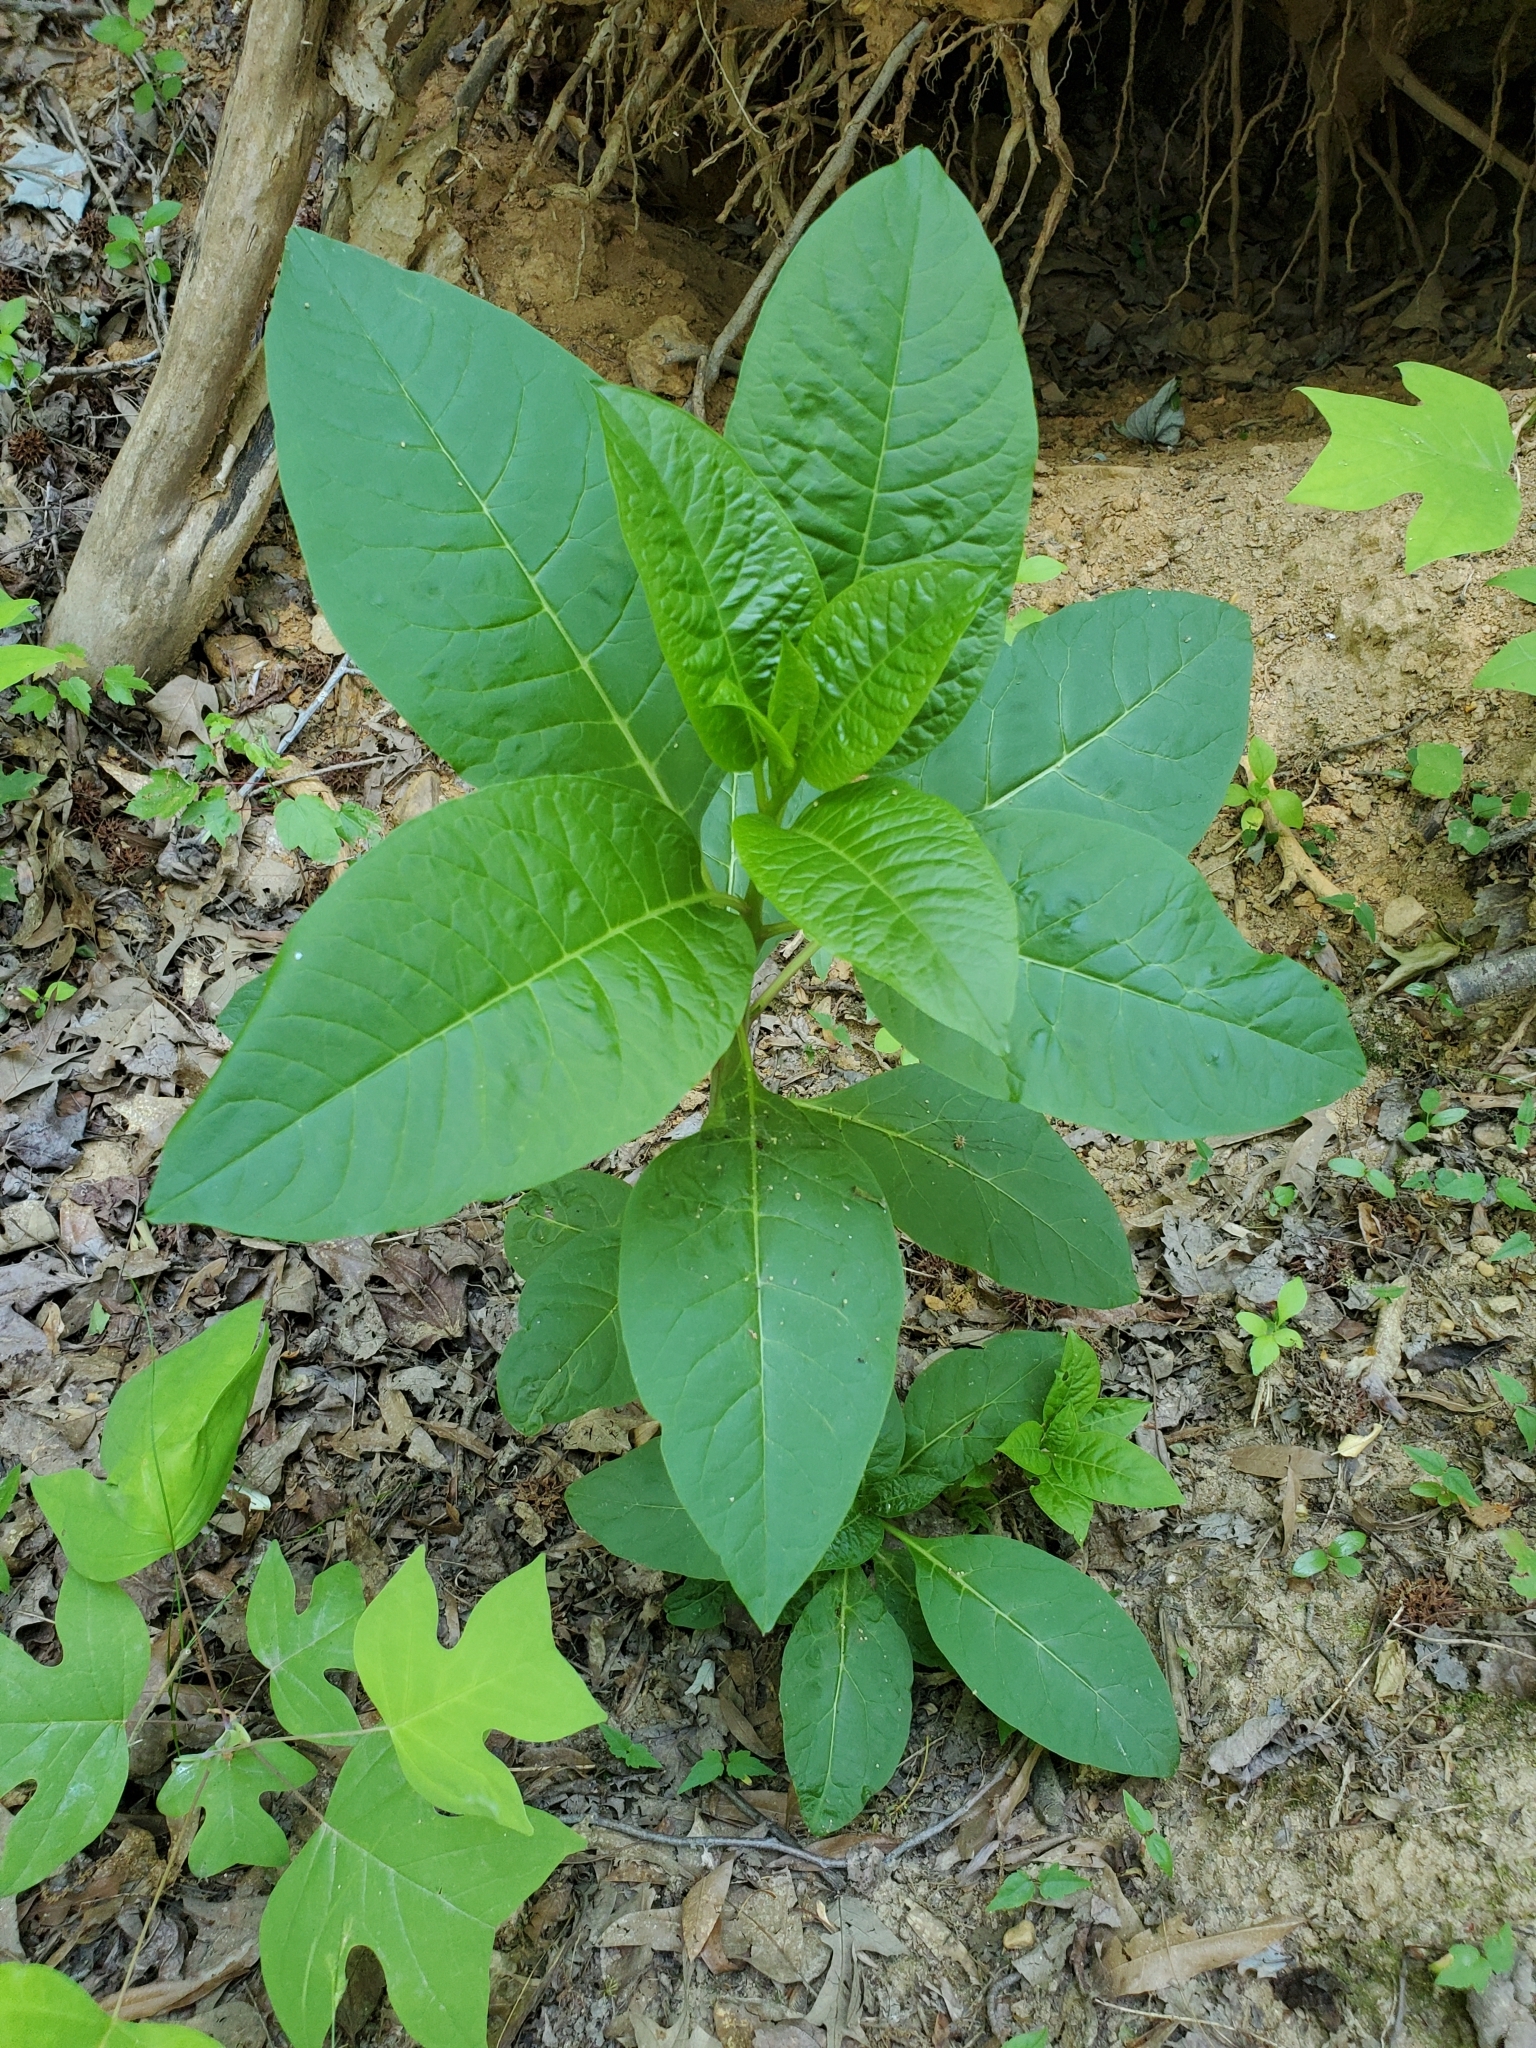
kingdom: Plantae
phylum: Tracheophyta
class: Magnoliopsida
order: Caryophyllales
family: Phytolaccaceae
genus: Phytolacca
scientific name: Phytolacca americana
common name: American pokeweed
